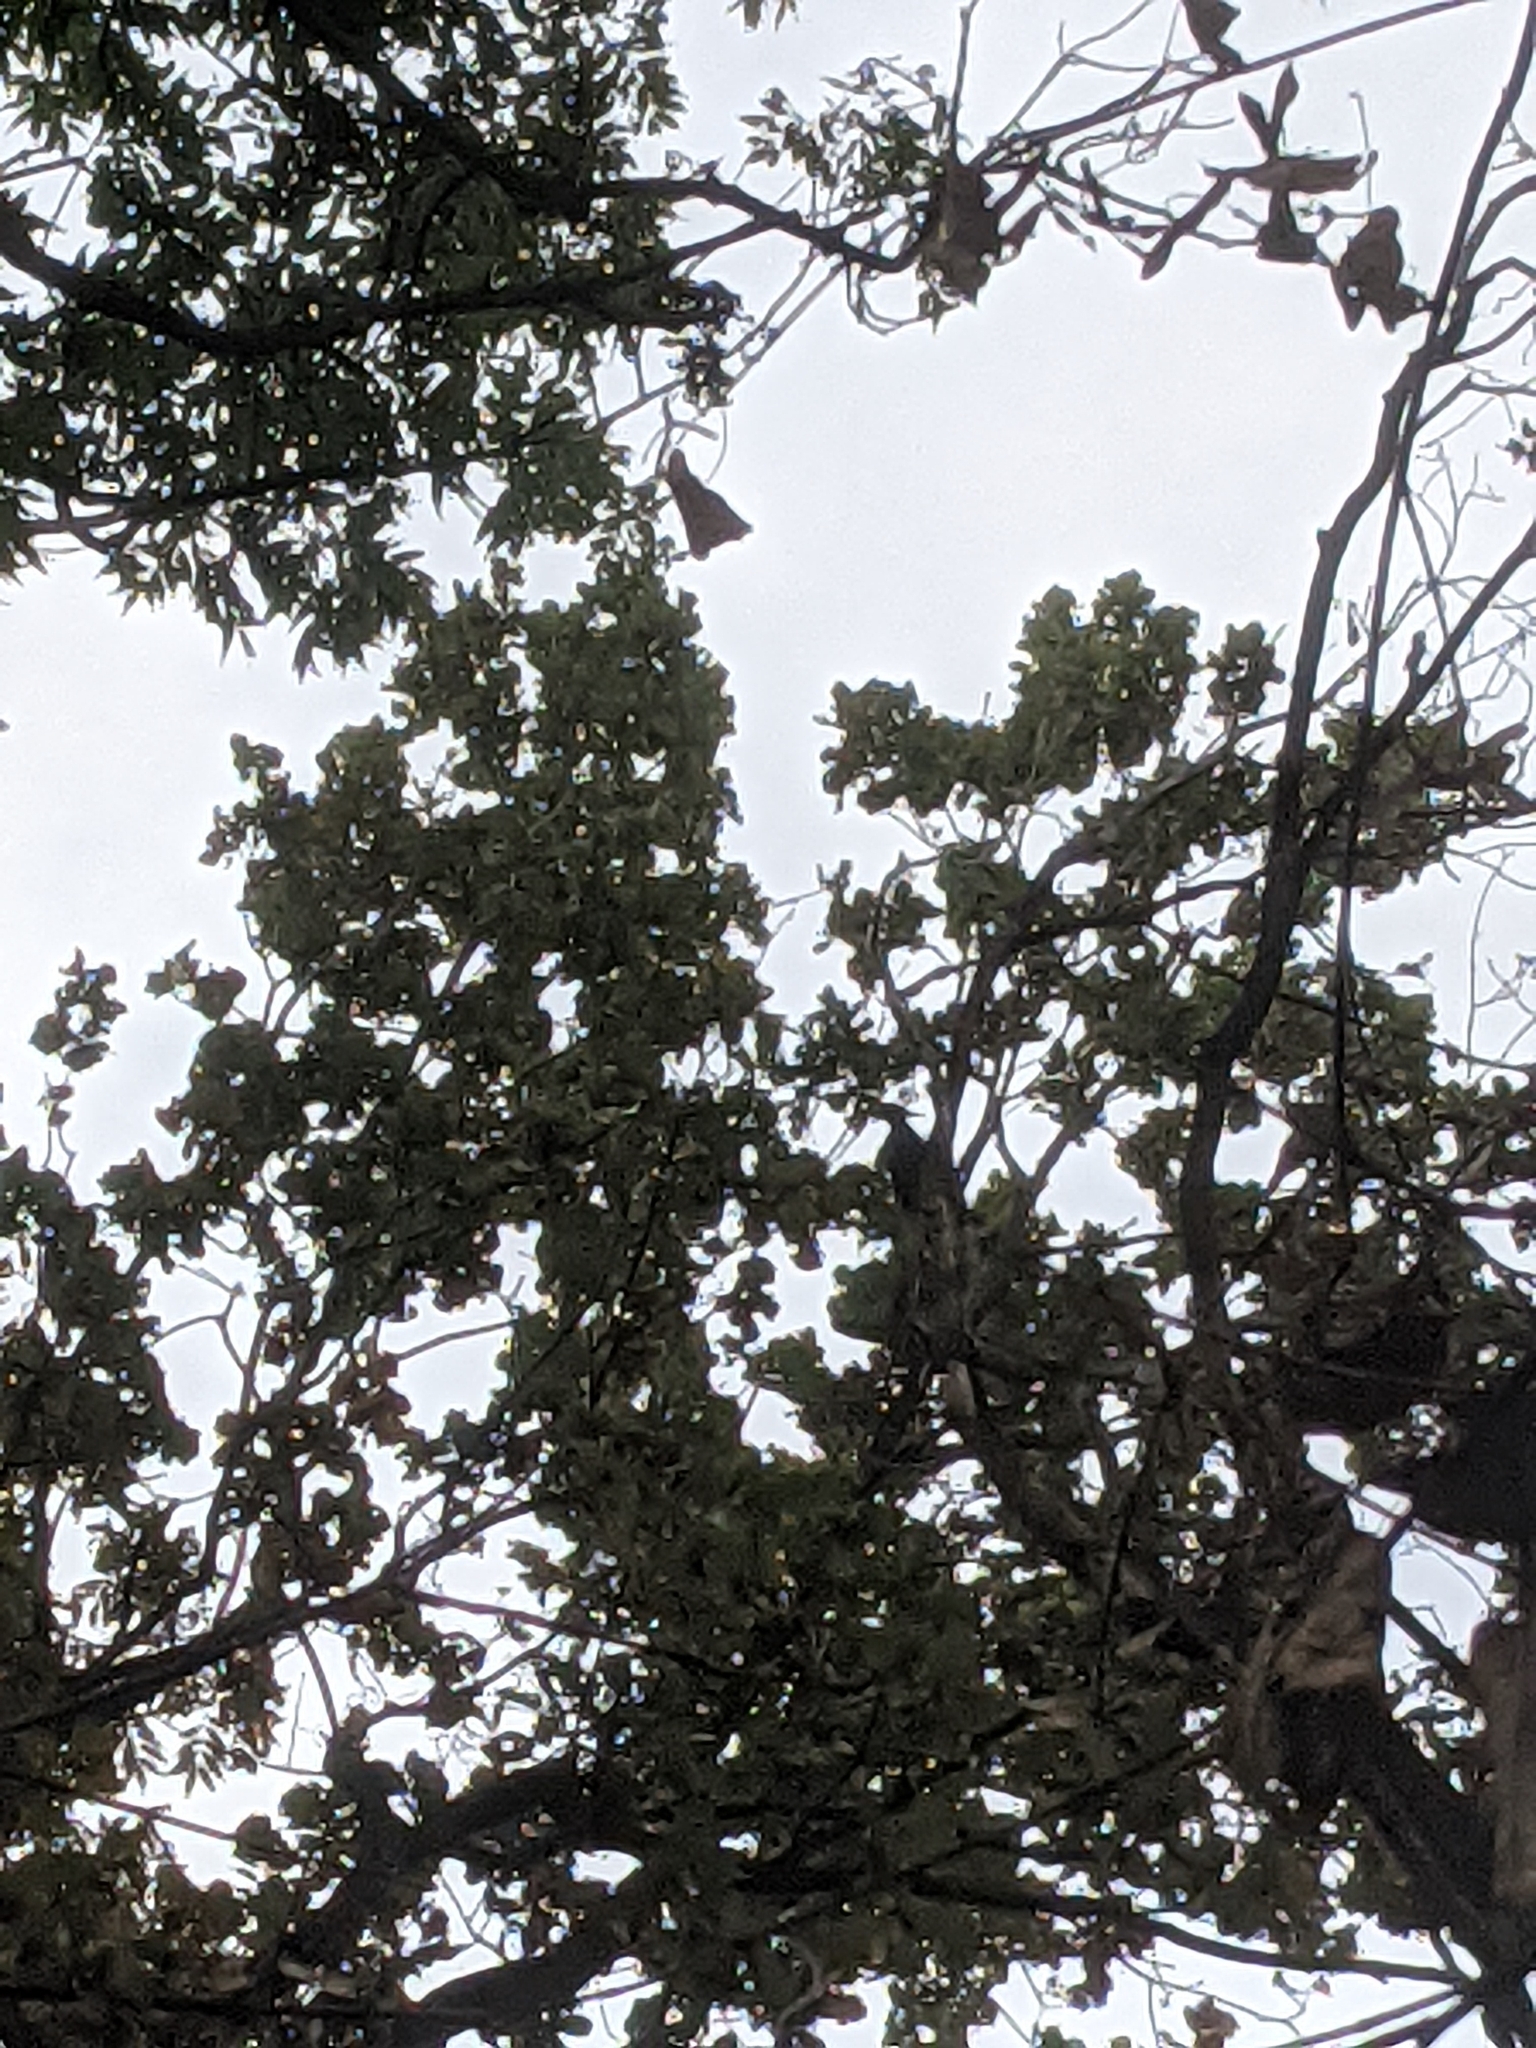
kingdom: Animalia
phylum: Chordata
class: Aves
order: Piciformes
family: Picidae
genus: Dryocopus
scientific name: Dryocopus martius
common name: Black woodpecker
